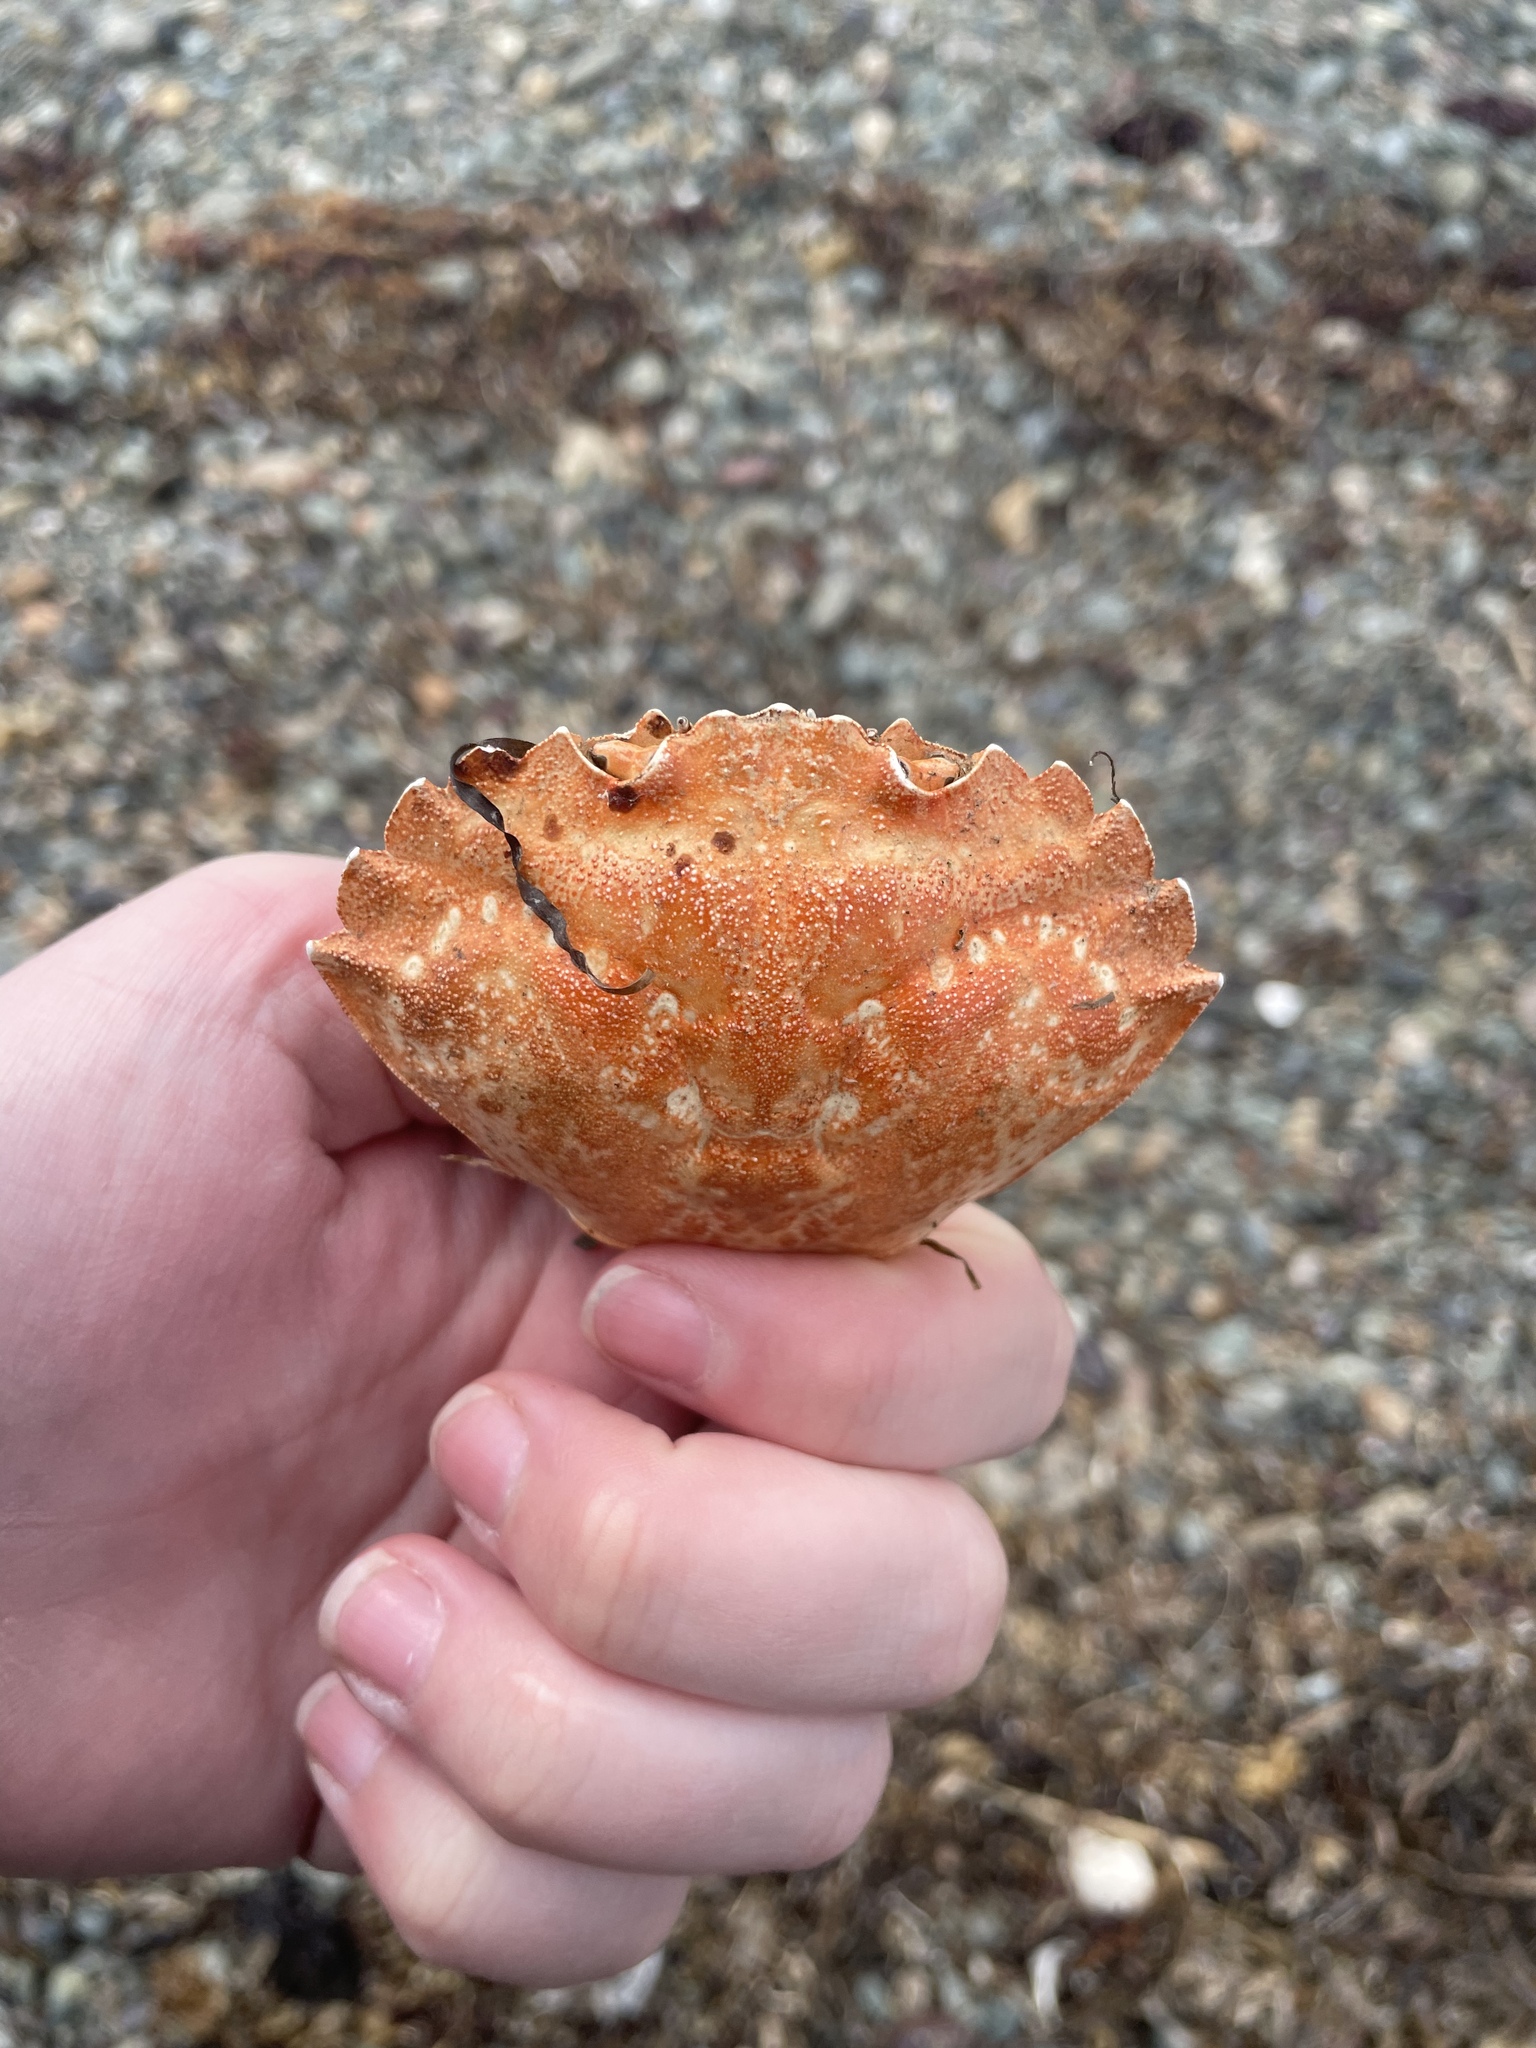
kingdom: Animalia
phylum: Arthropoda
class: Malacostraca
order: Decapoda
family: Carcinidae
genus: Carcinus
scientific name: Carcinus maenas
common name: European green crab
